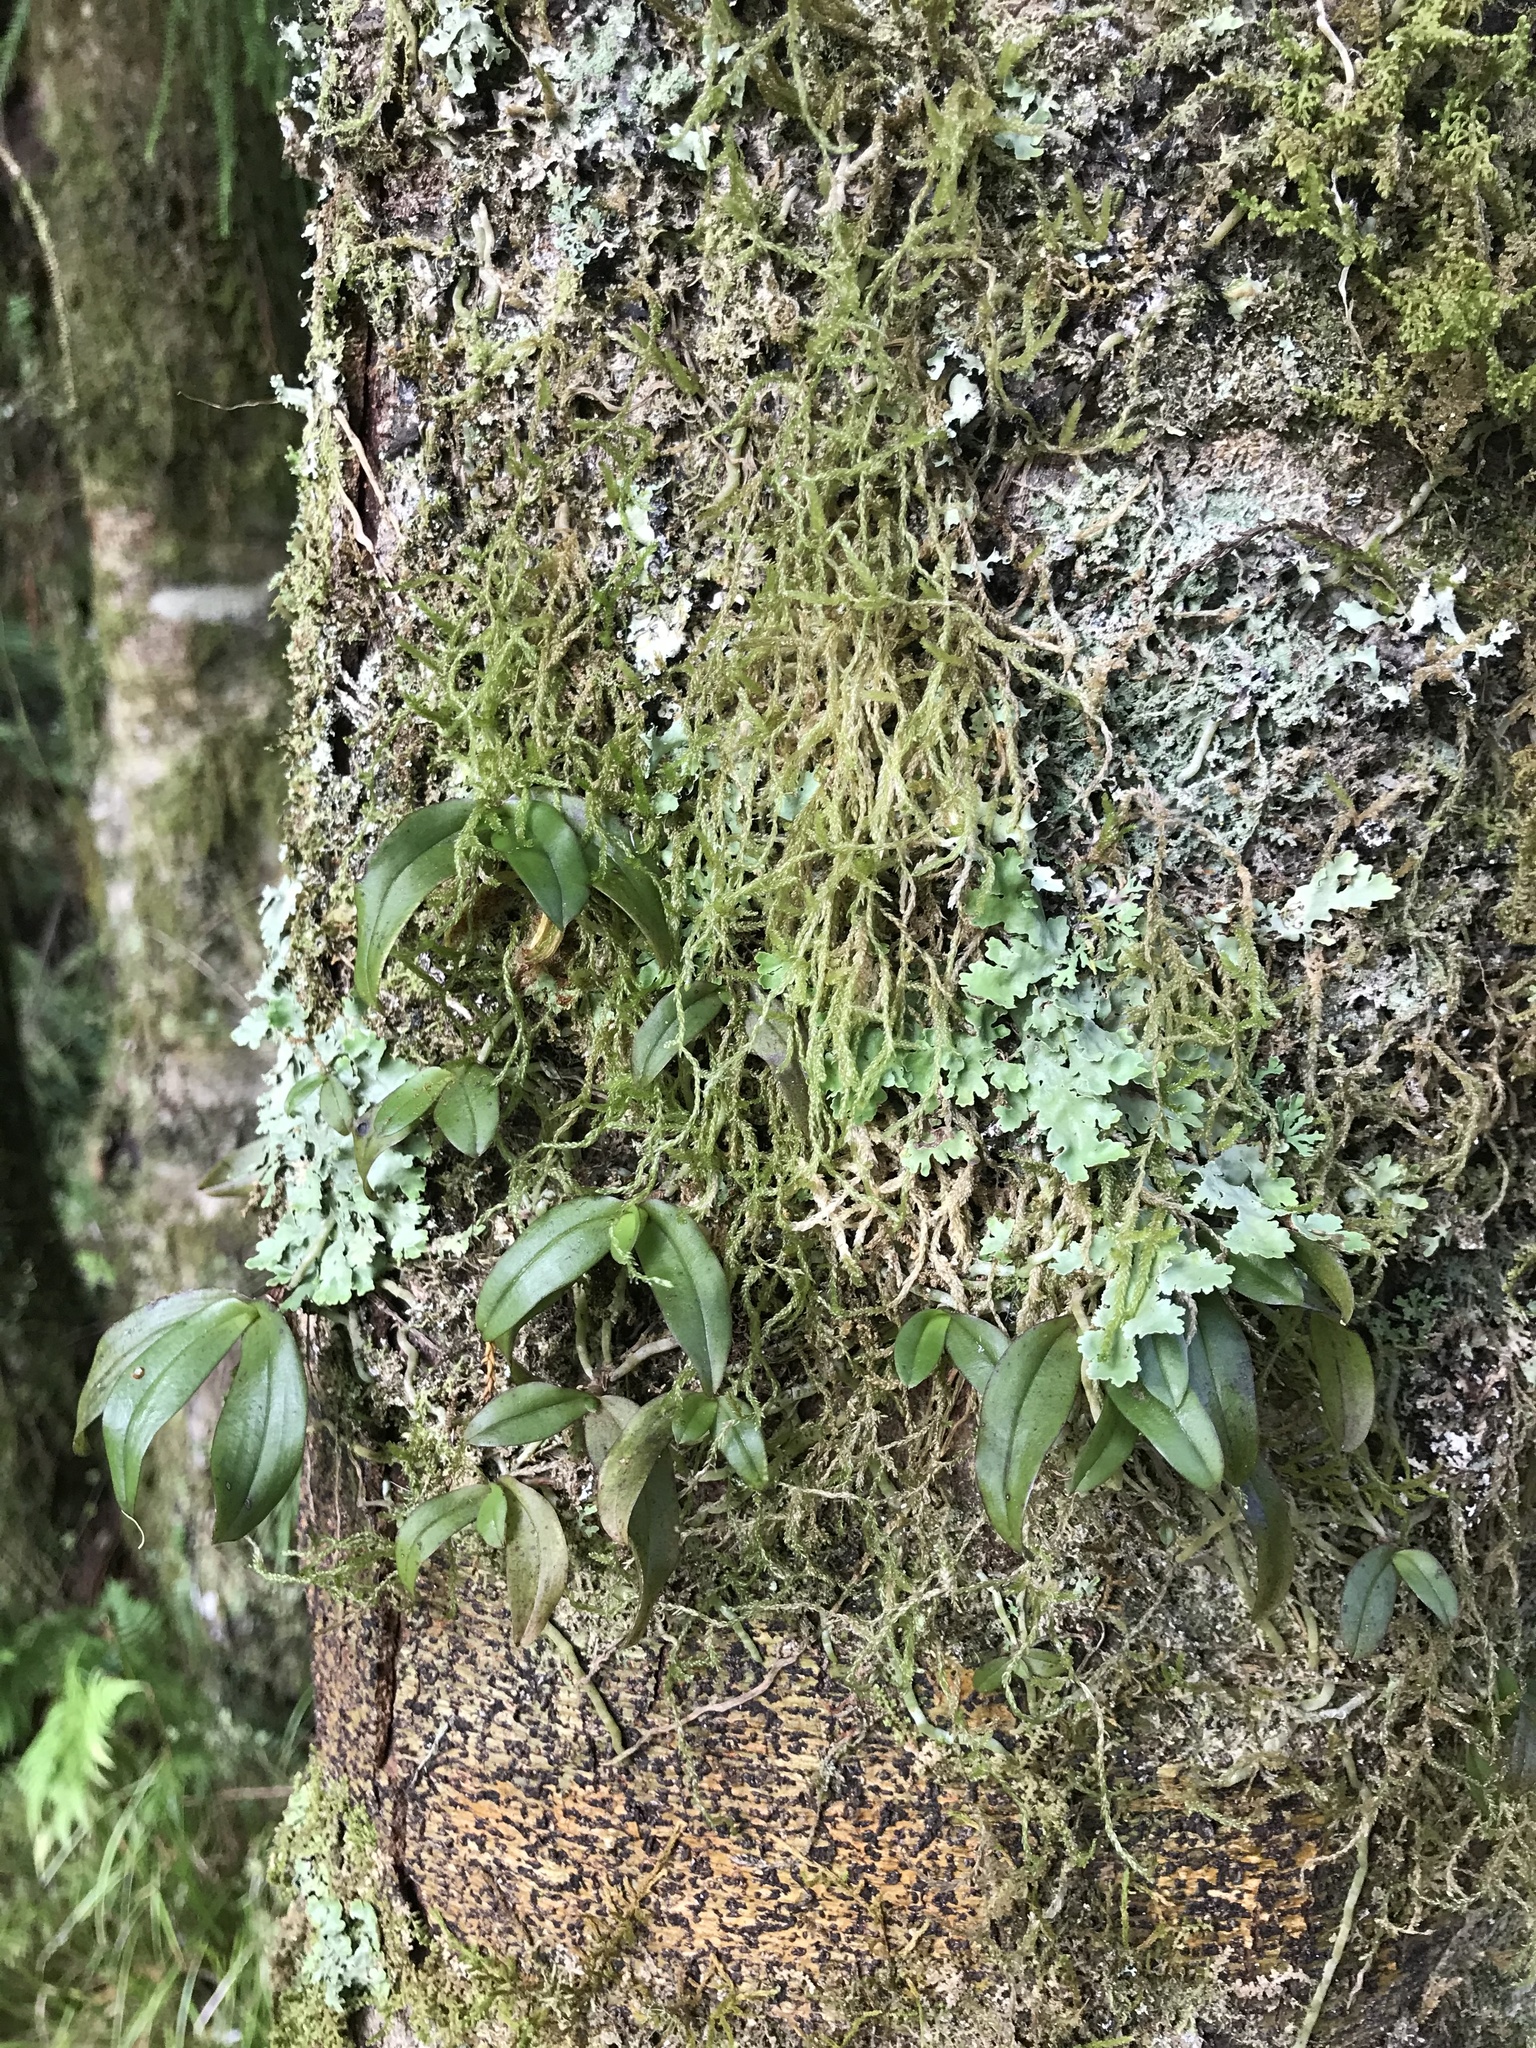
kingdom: Plantae
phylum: Tracheophyta
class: Liliopsida
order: Asparagales
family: Orchidaceae
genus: Drymoanthus
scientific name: Drymoanthus adversus
